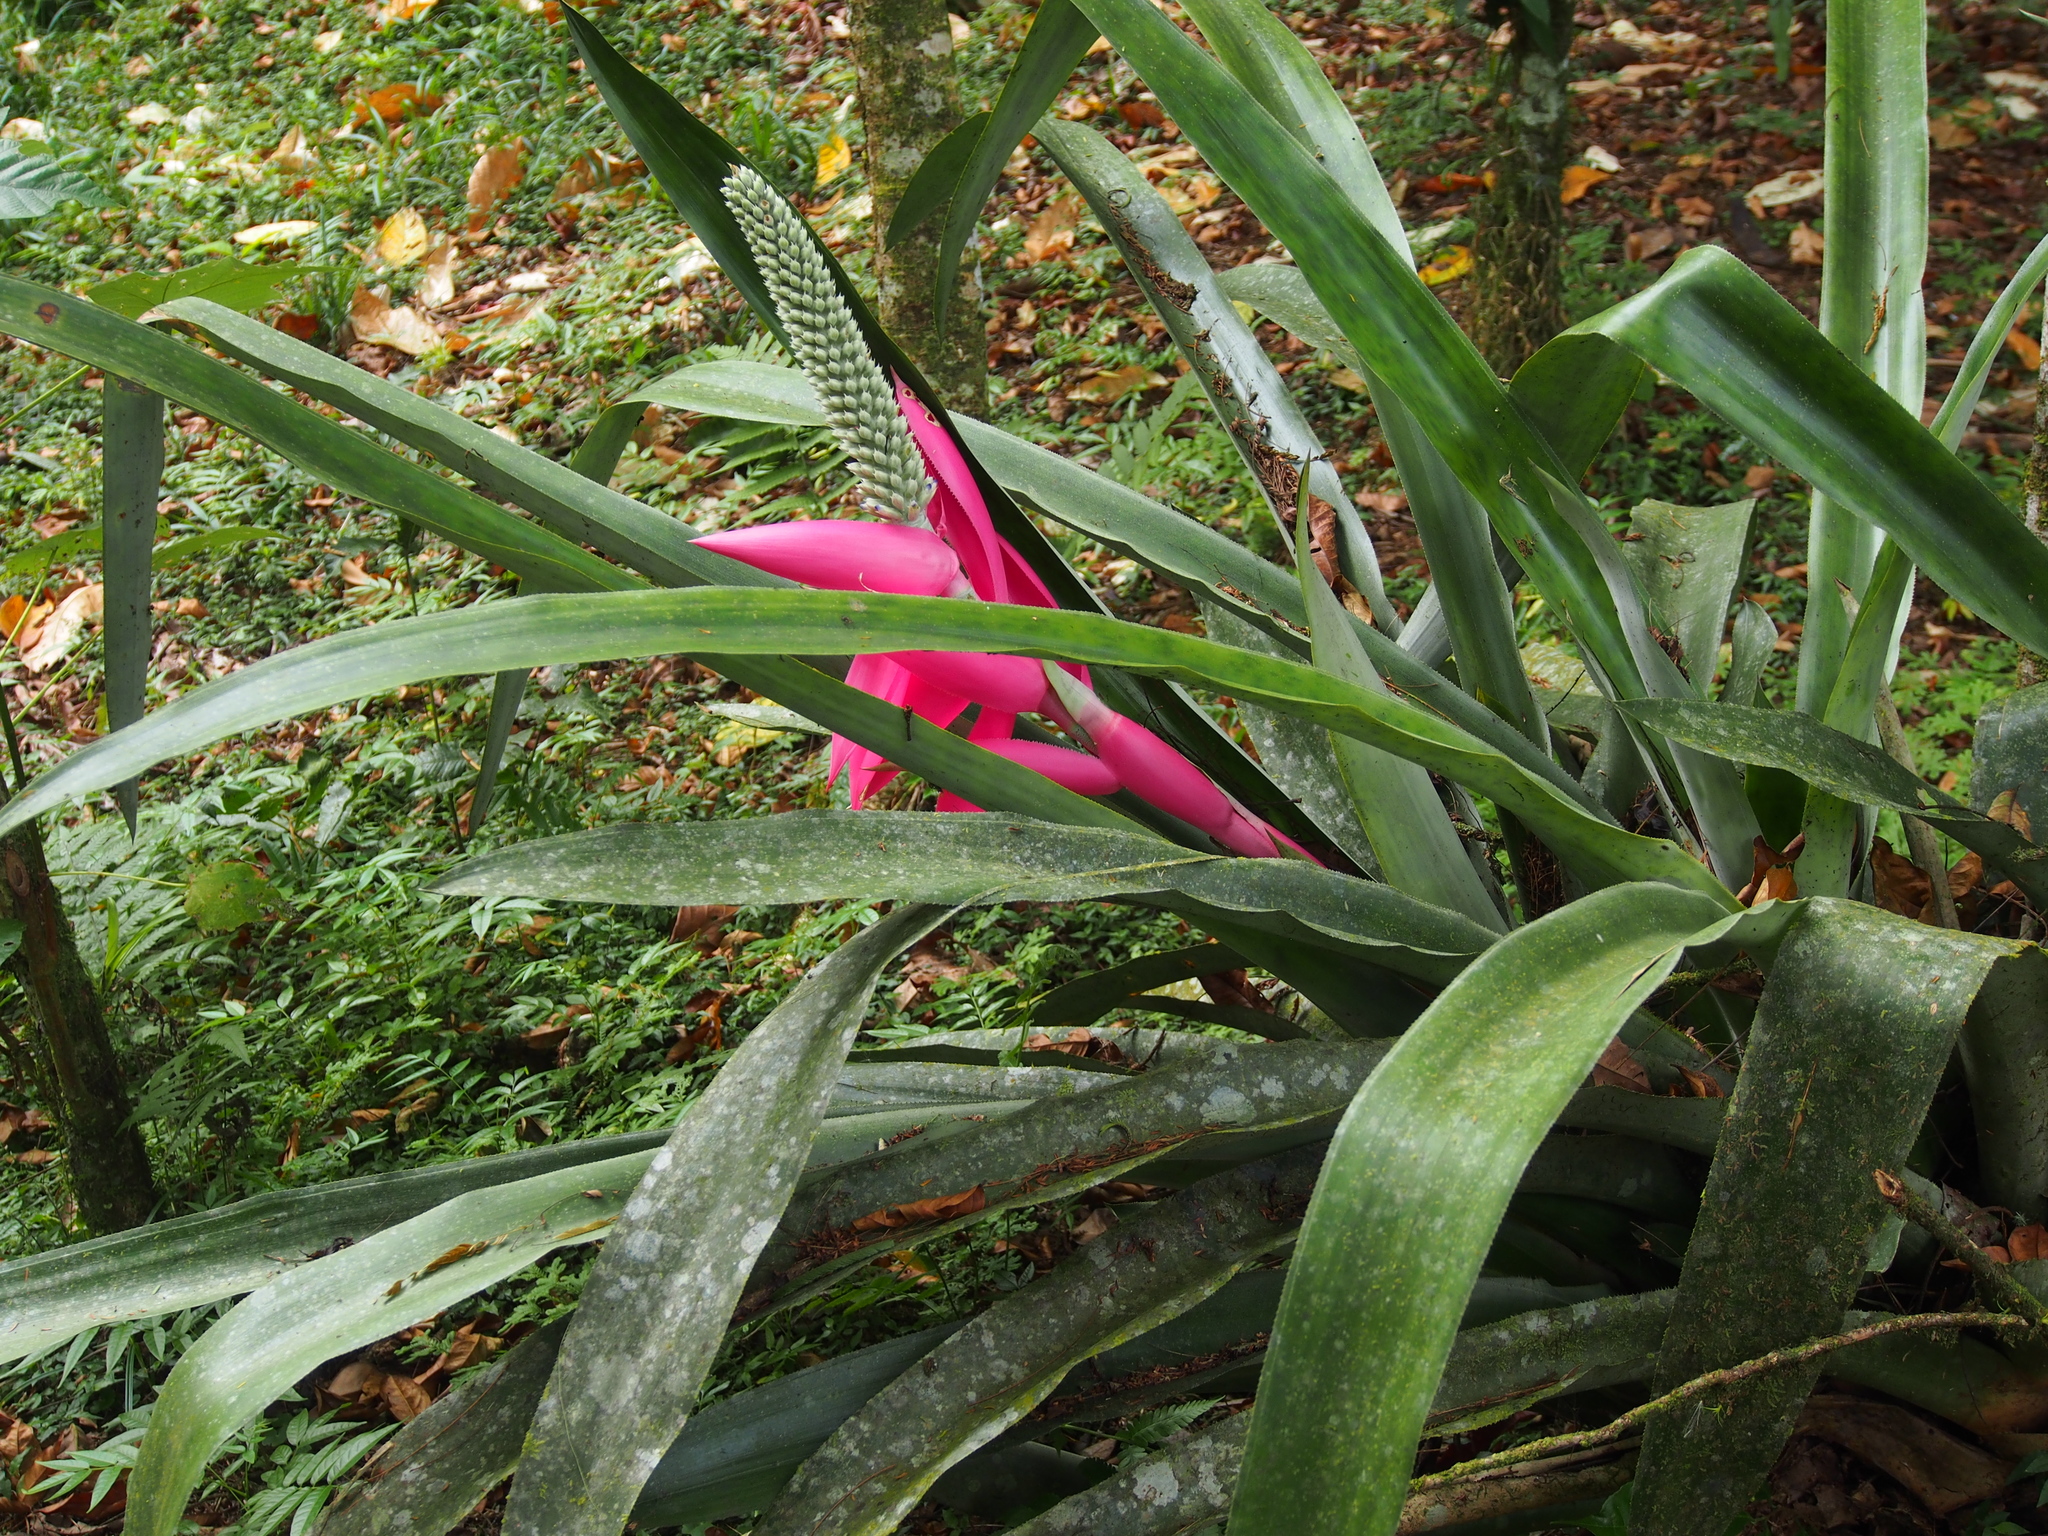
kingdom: Plantae
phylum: Tracheophyta
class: Liliopsida
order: Poales
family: Bromeliaceae
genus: Aechmea
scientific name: Aechmea mariae-reginae
